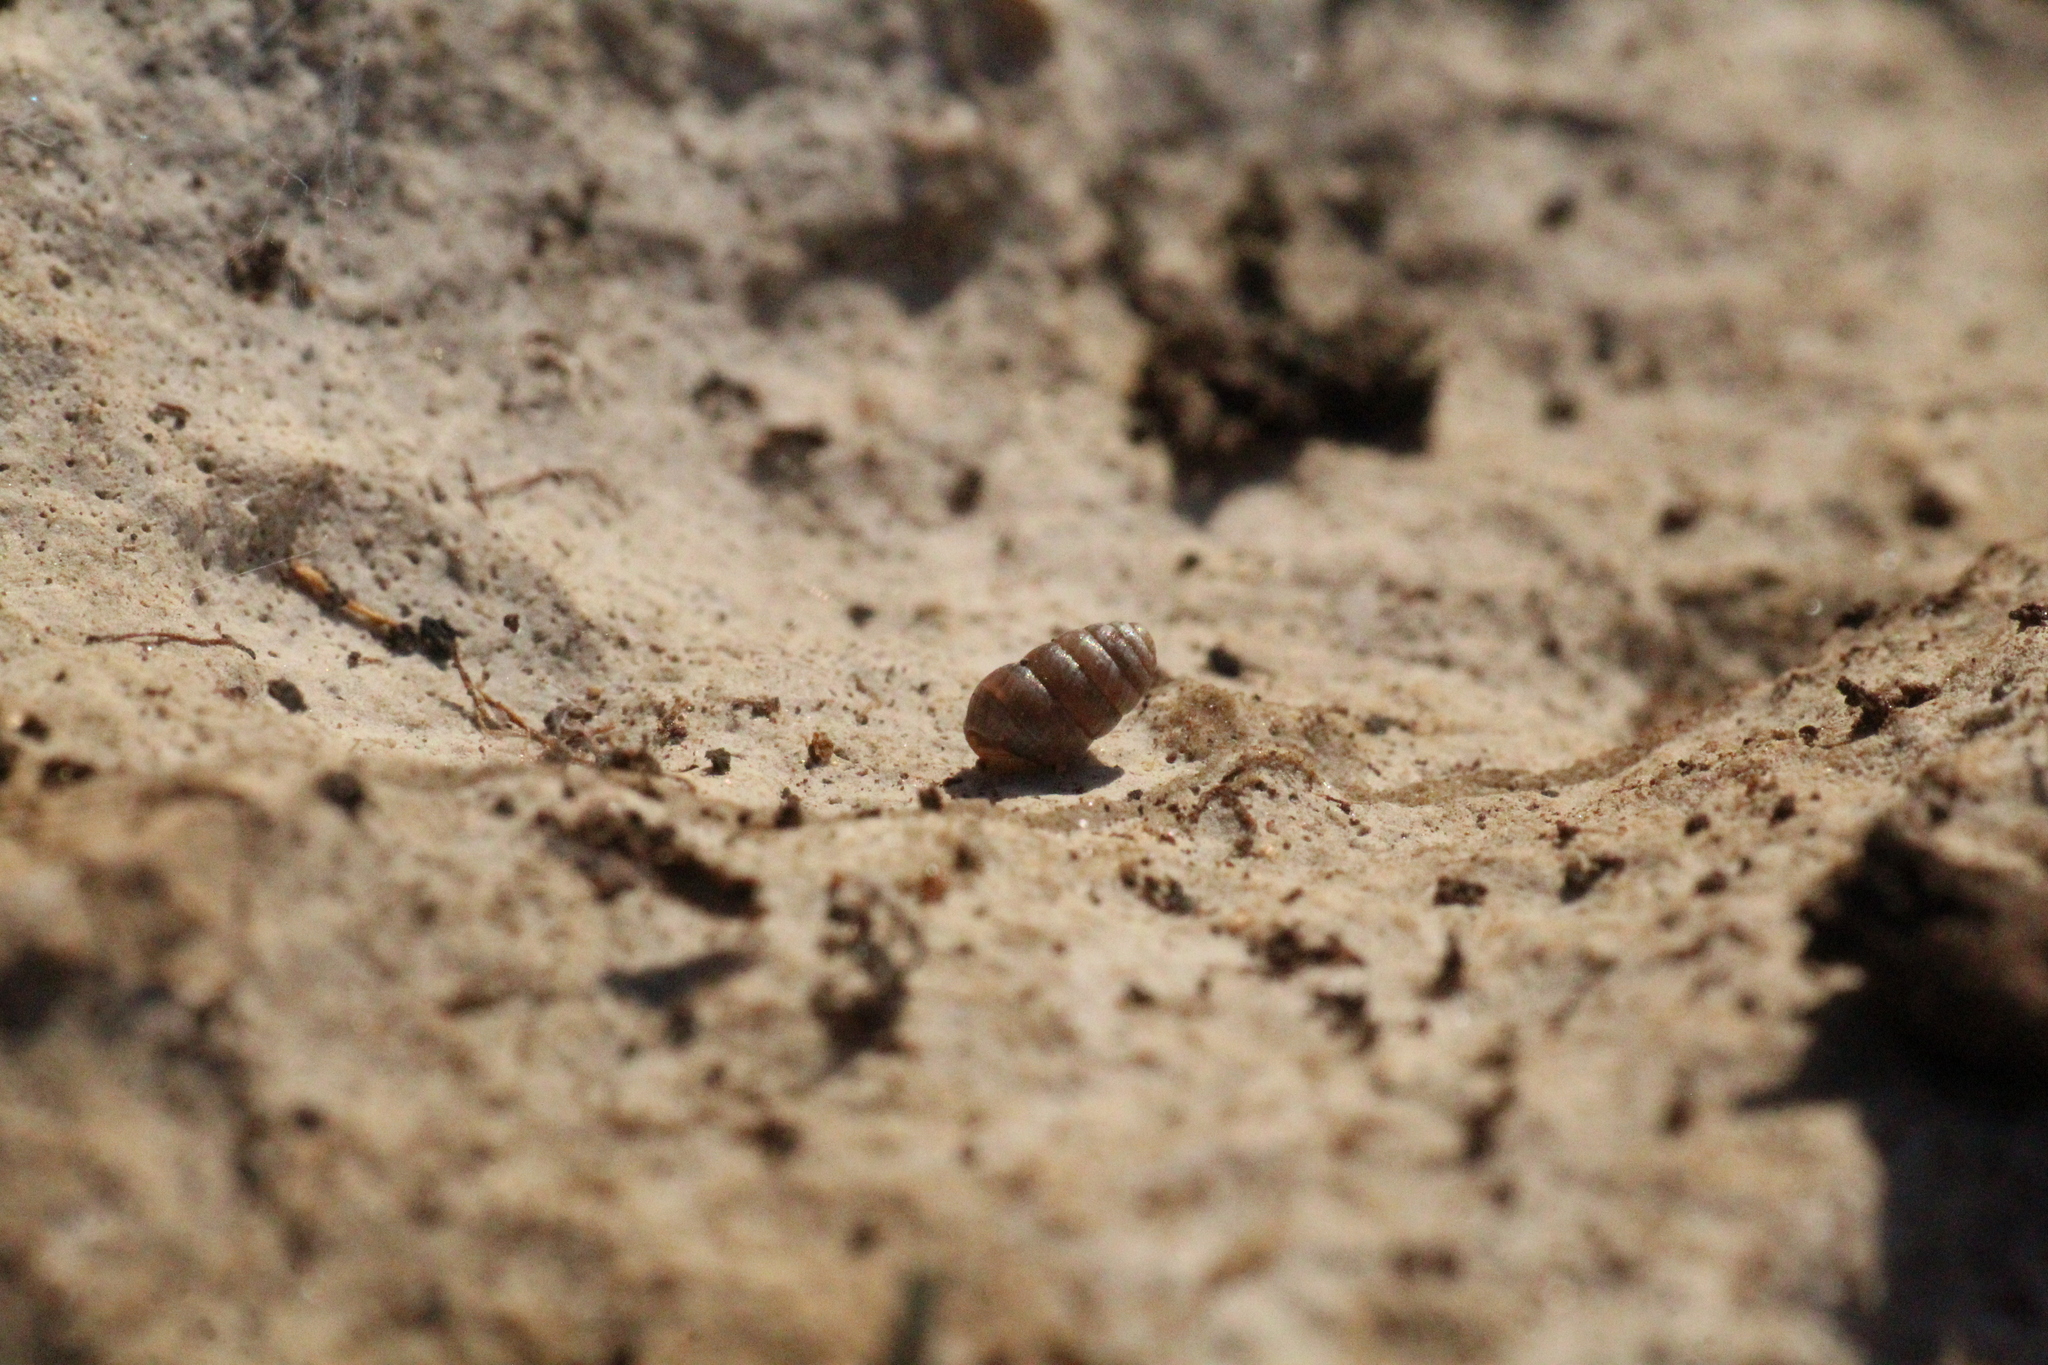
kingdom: Animalia
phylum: Mollusca
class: Gastropoda
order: Stylommatophora
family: Lauriidae
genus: Lauria
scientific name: Lauria cylindracea
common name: Common chrysalis snail
